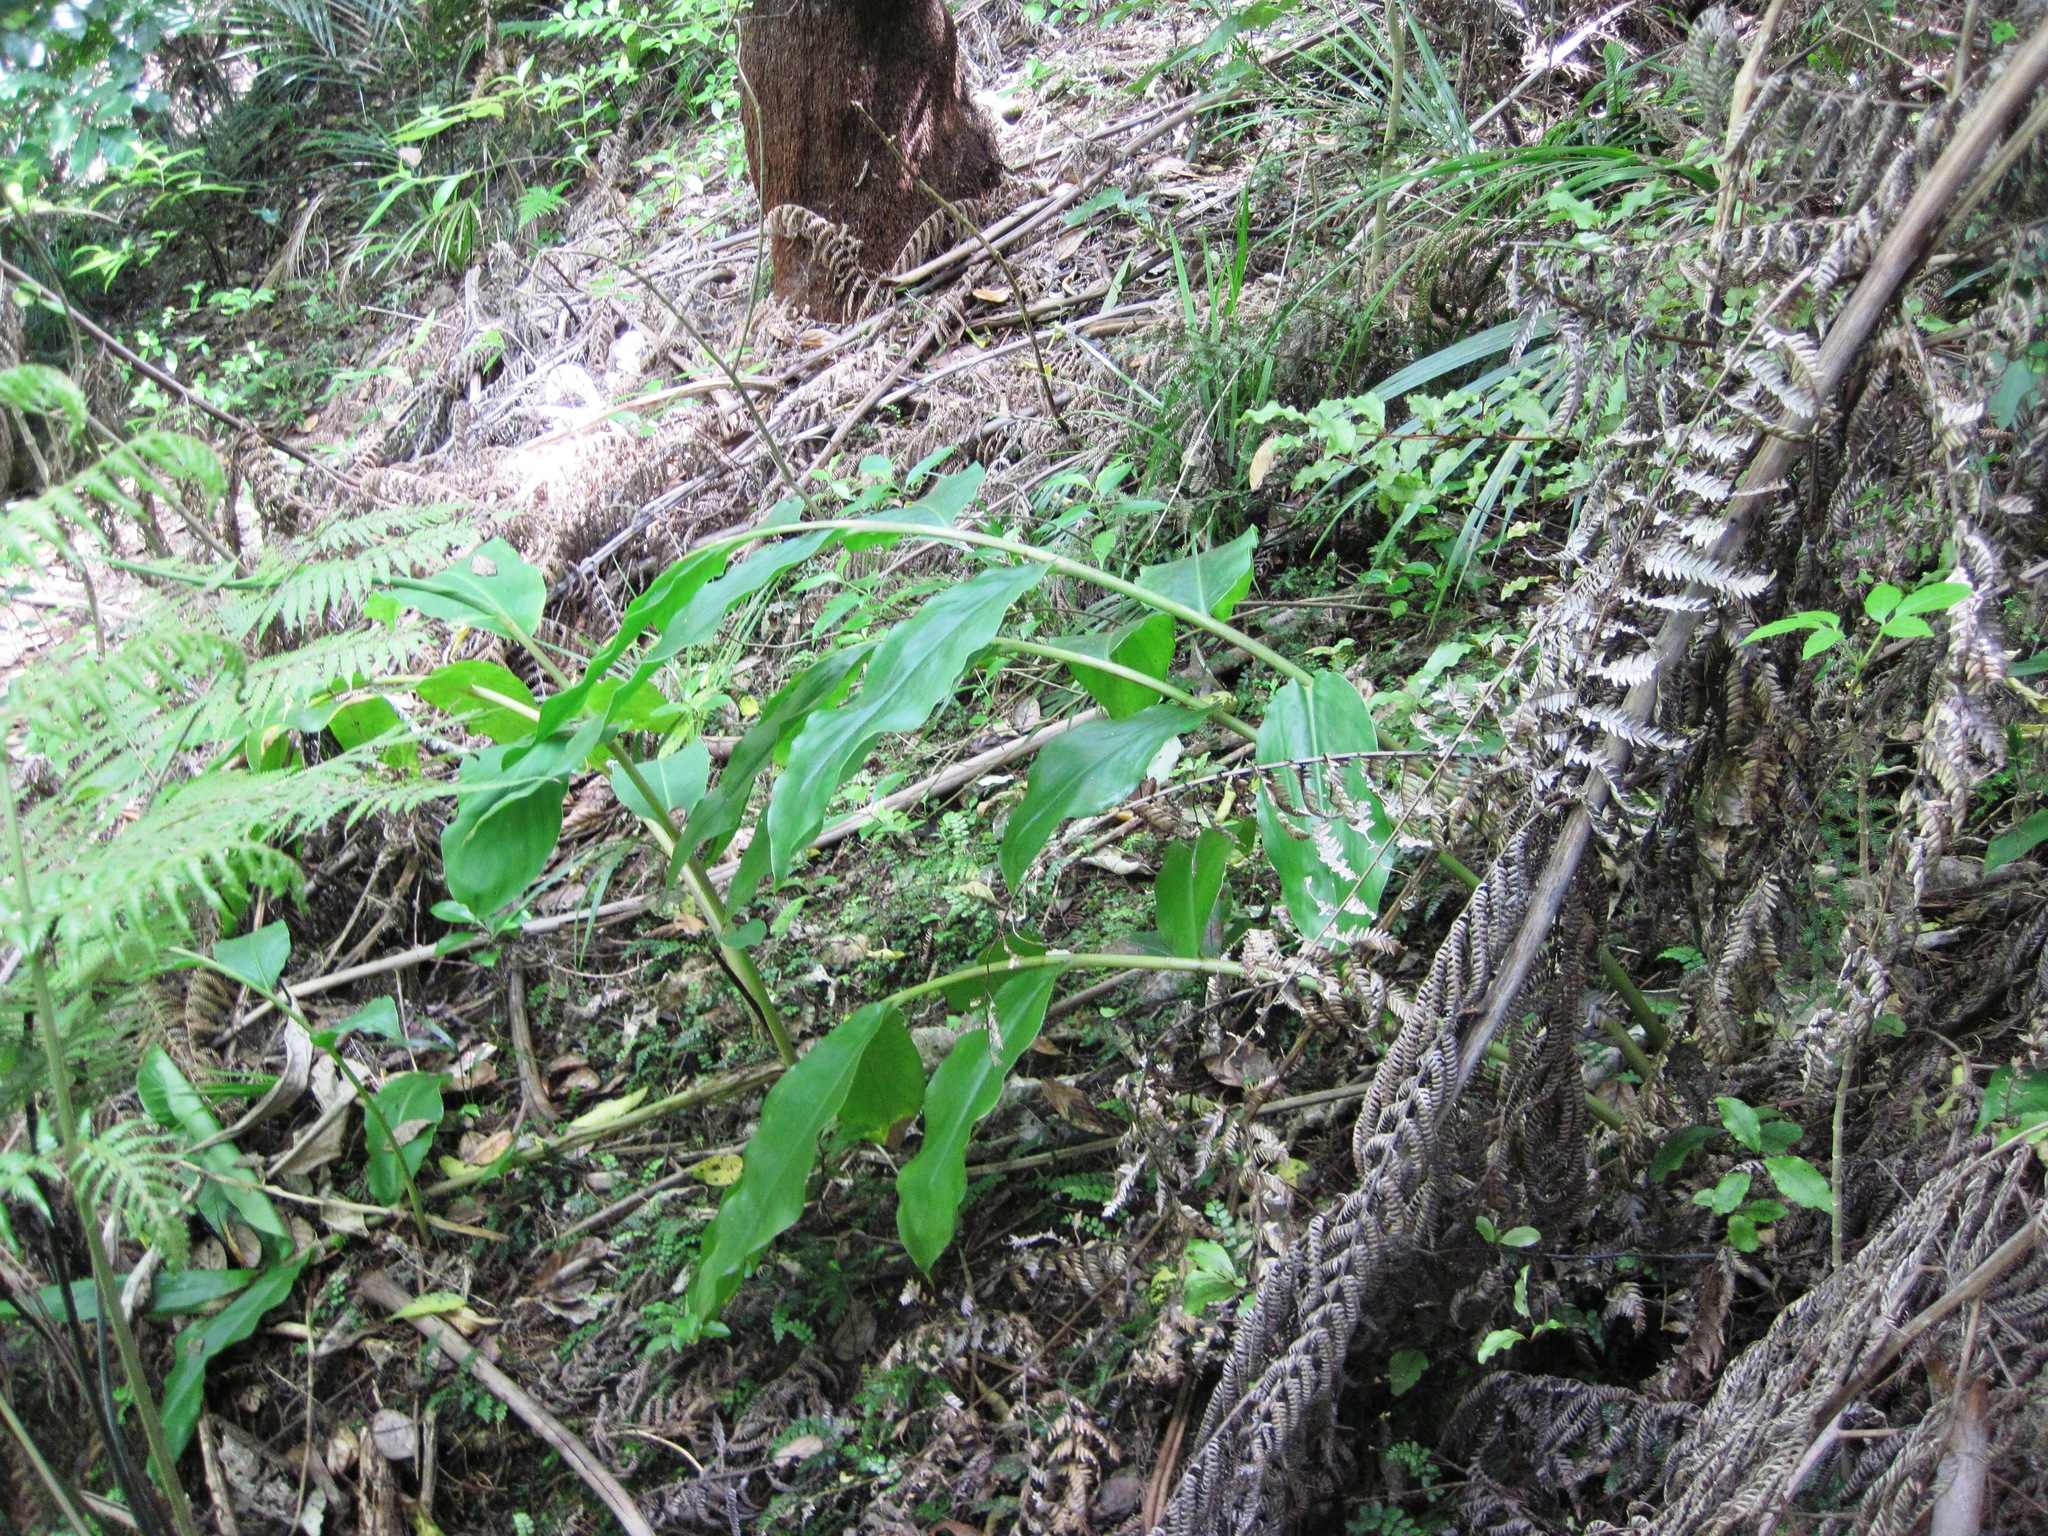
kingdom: Plantae
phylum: Tracheophyta
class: Liliopsida
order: Zingiberales
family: Zingiberaceae
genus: Hedychium
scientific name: Hedychium gardnerianum
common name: Himalayan ginger
